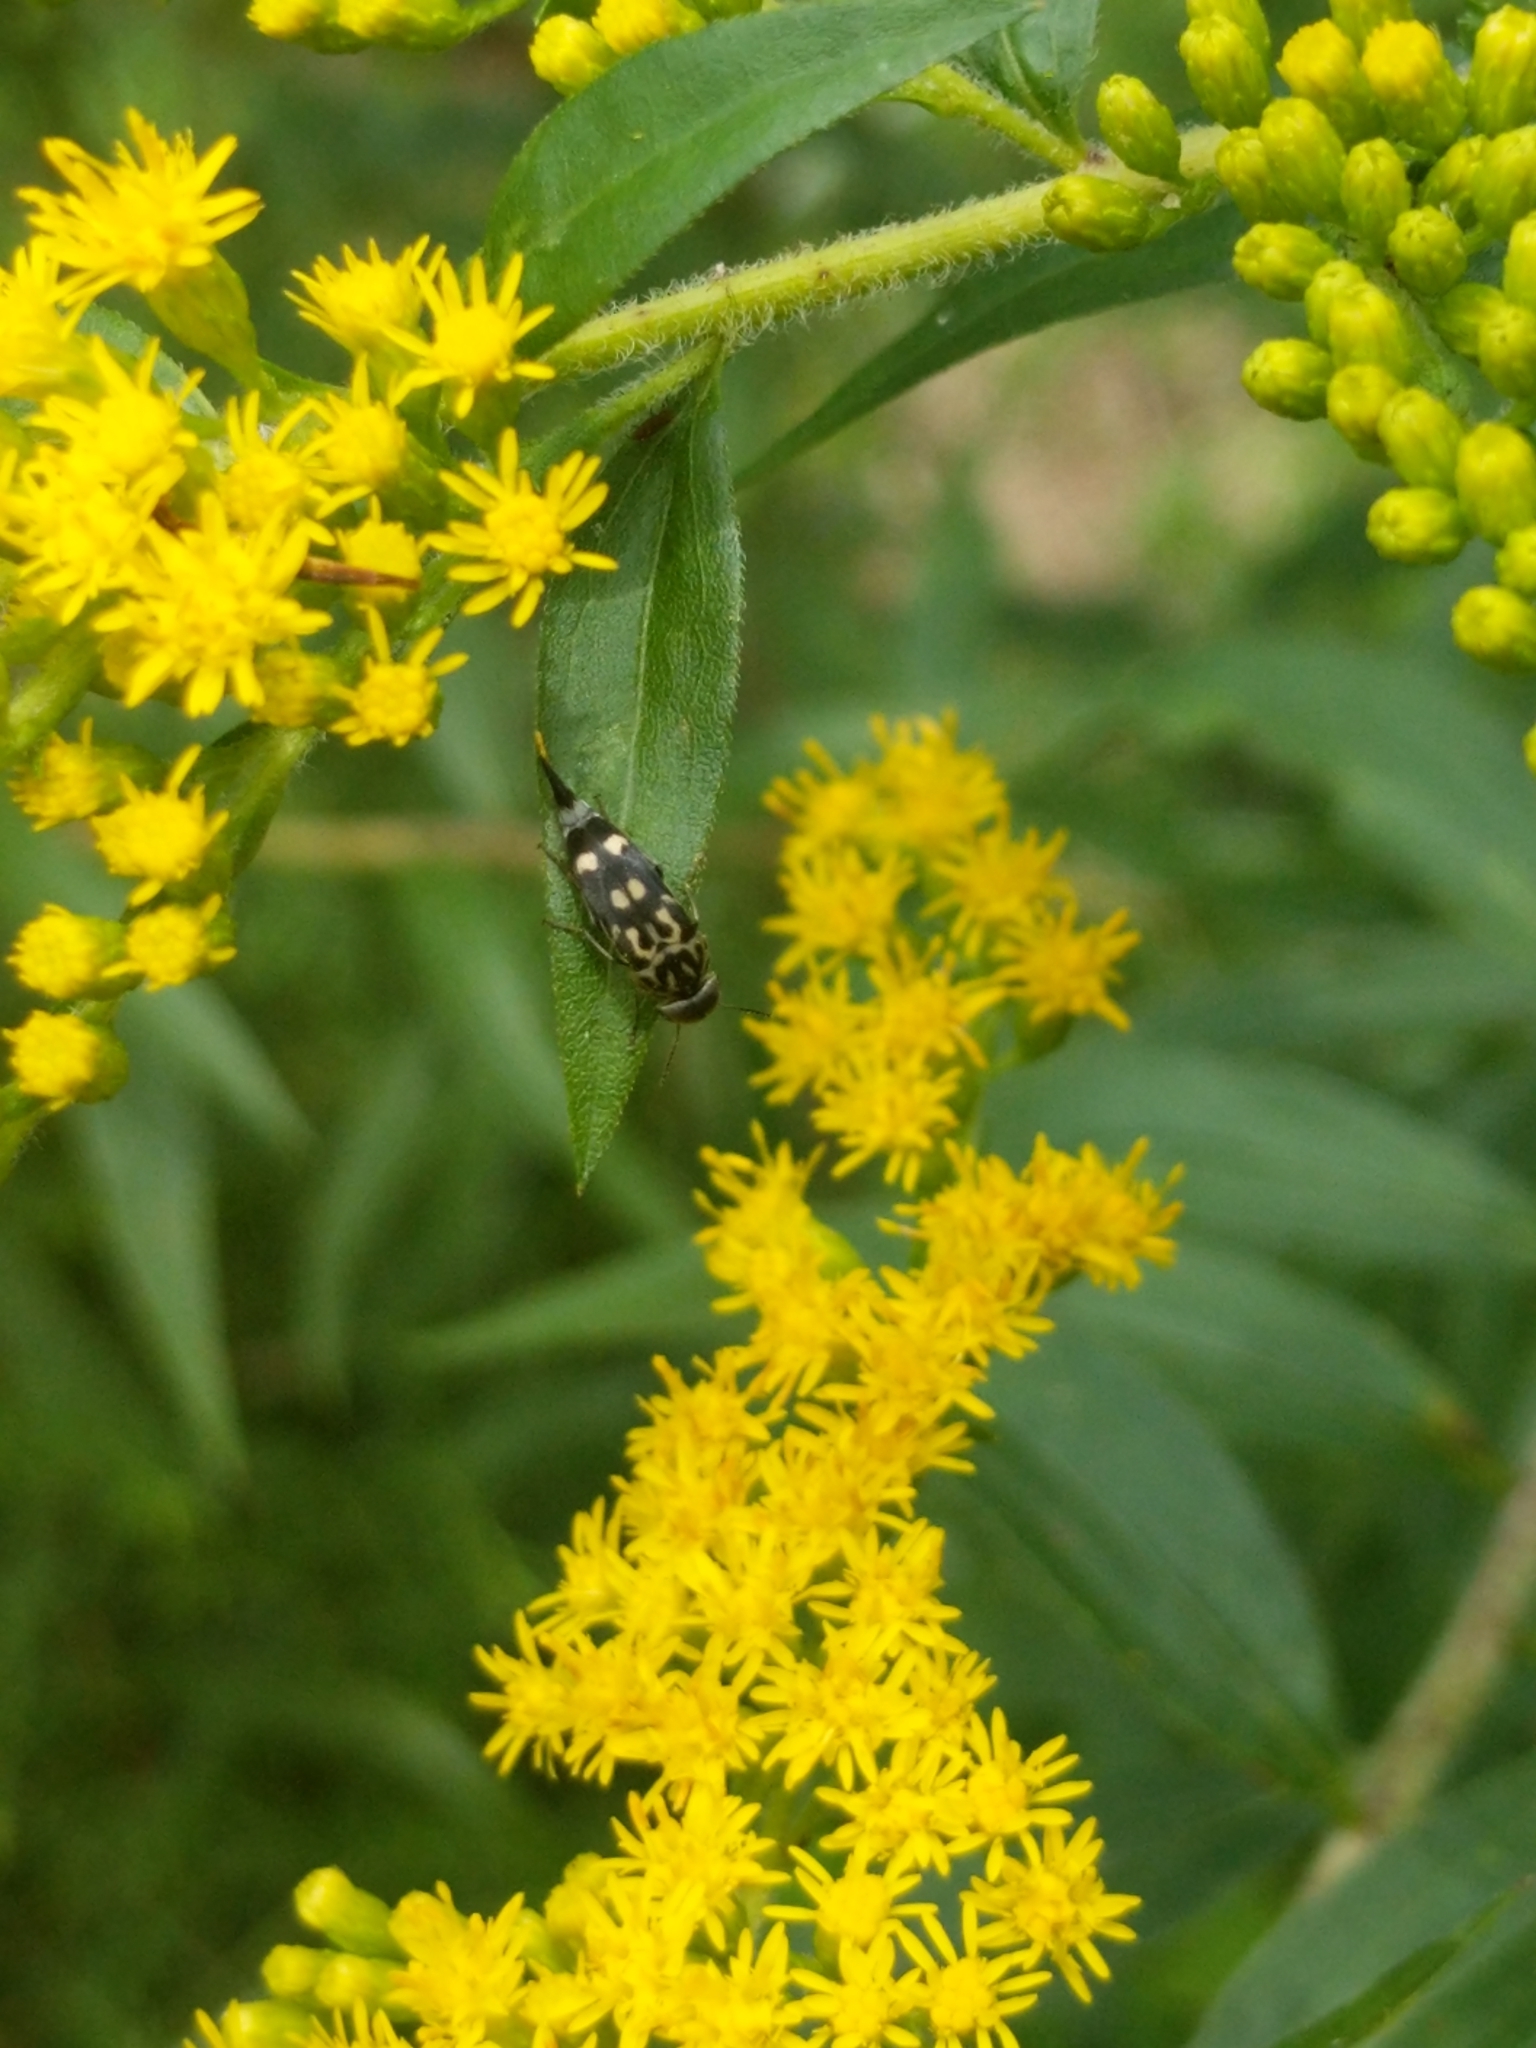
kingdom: Animalia
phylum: Arthropoda
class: Insecta
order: Coleoptera
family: Mordellidae
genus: Hoshihananomia
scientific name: Hoshihananomia octopunctata
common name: Eight-spotted tumbling flower beetle
